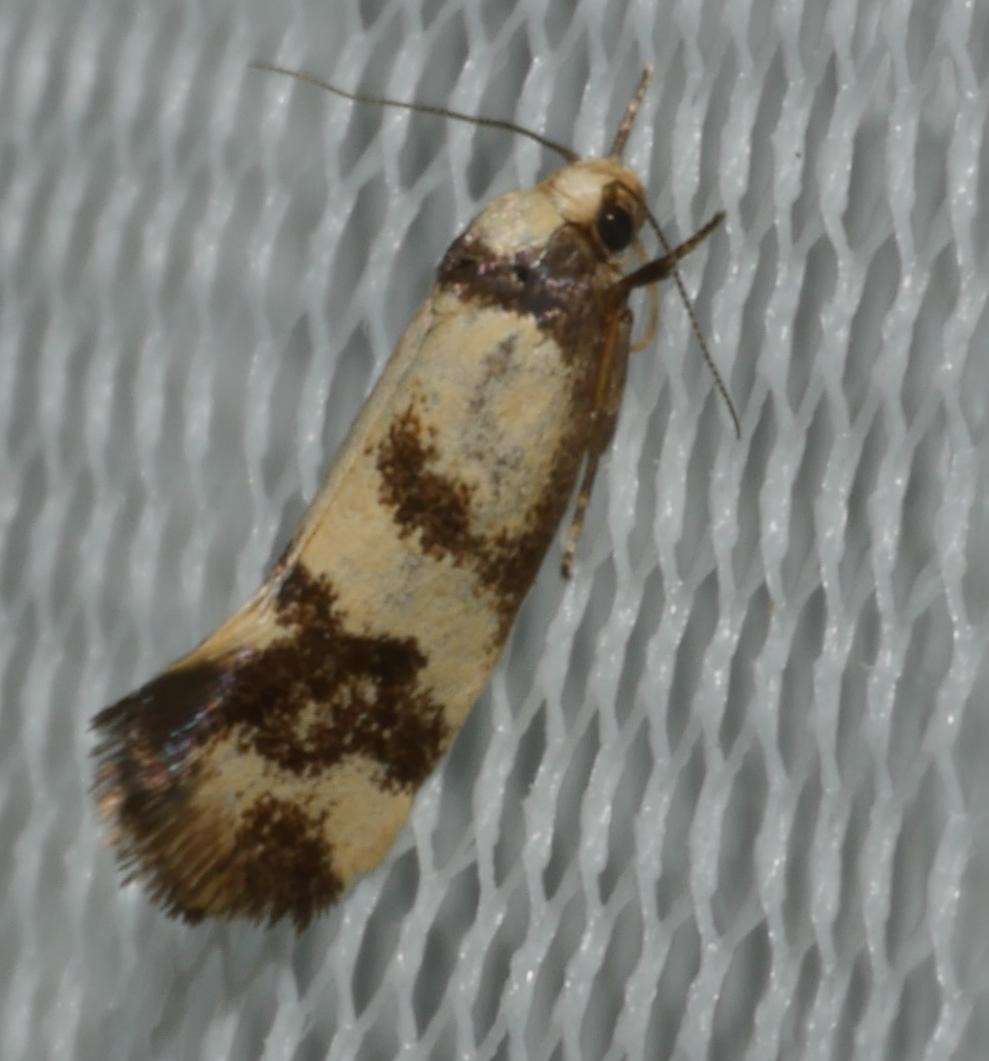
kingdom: Animalia
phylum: Arthropoda
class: Insecta
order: Lepidoptera
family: Oecophoridae
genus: Olbonoma
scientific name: Olbonoma triptycha
